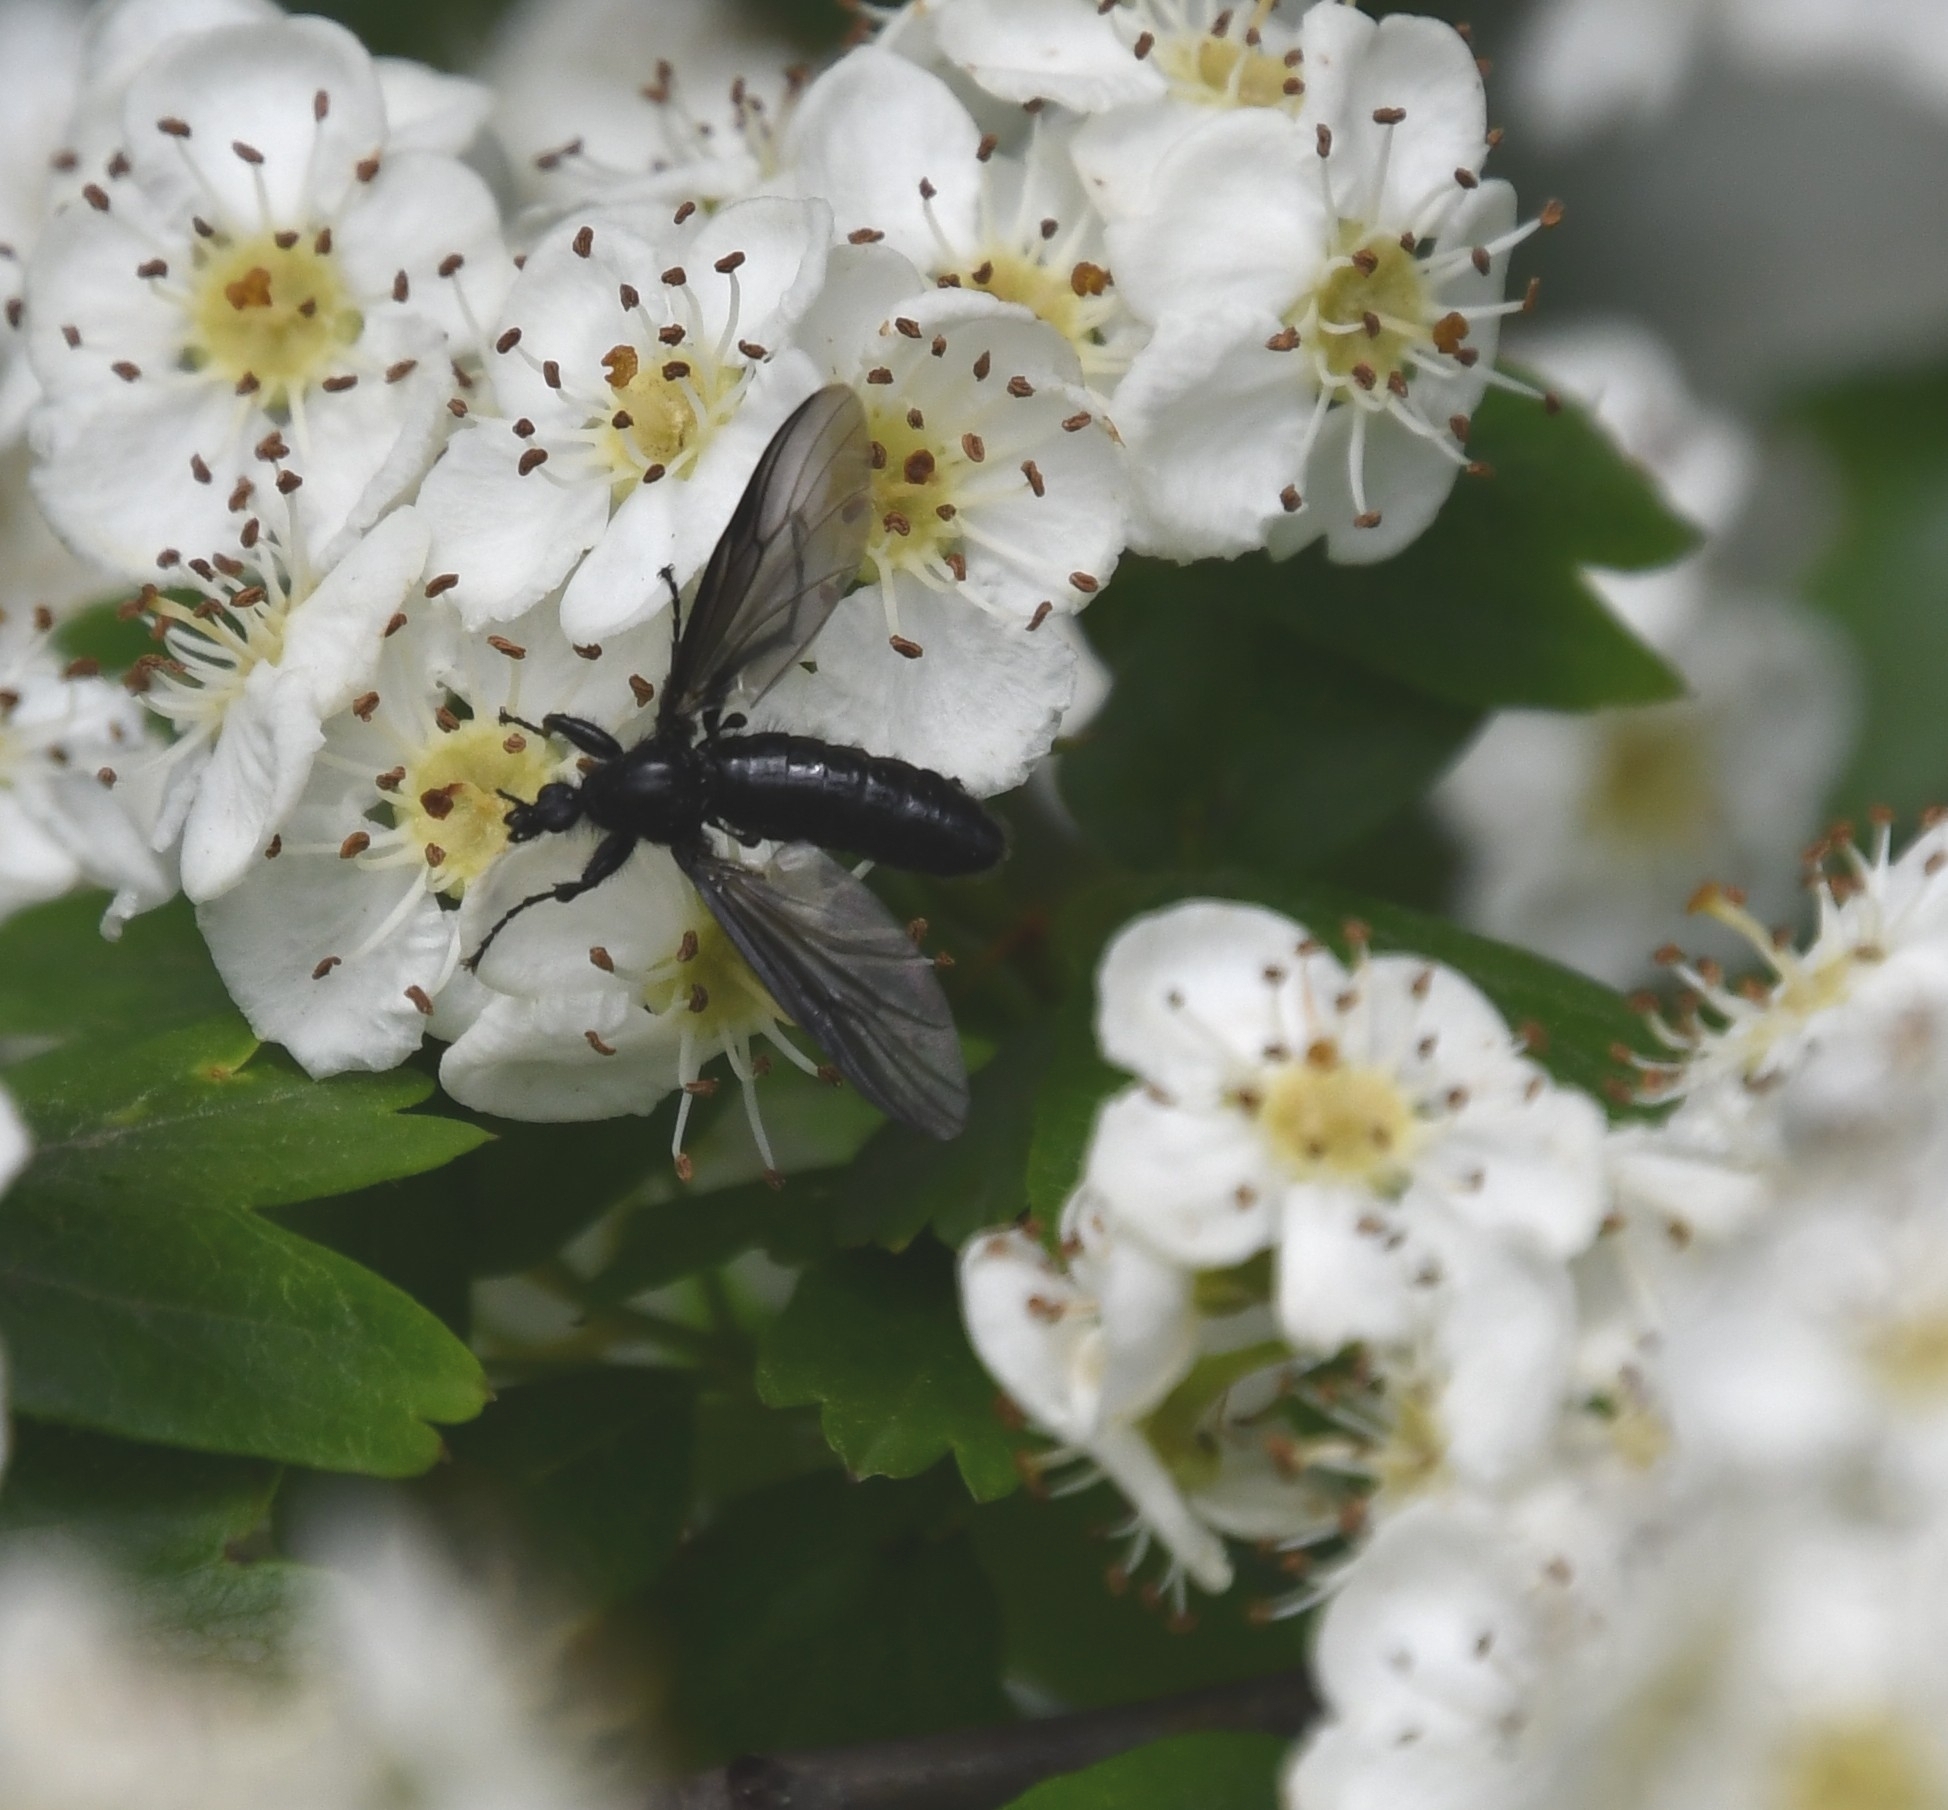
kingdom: Animalia
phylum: Arthropoda
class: Insecta
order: Diptera
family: Bibionidae
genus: Bibio
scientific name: Bibio marci
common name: St marks fly
